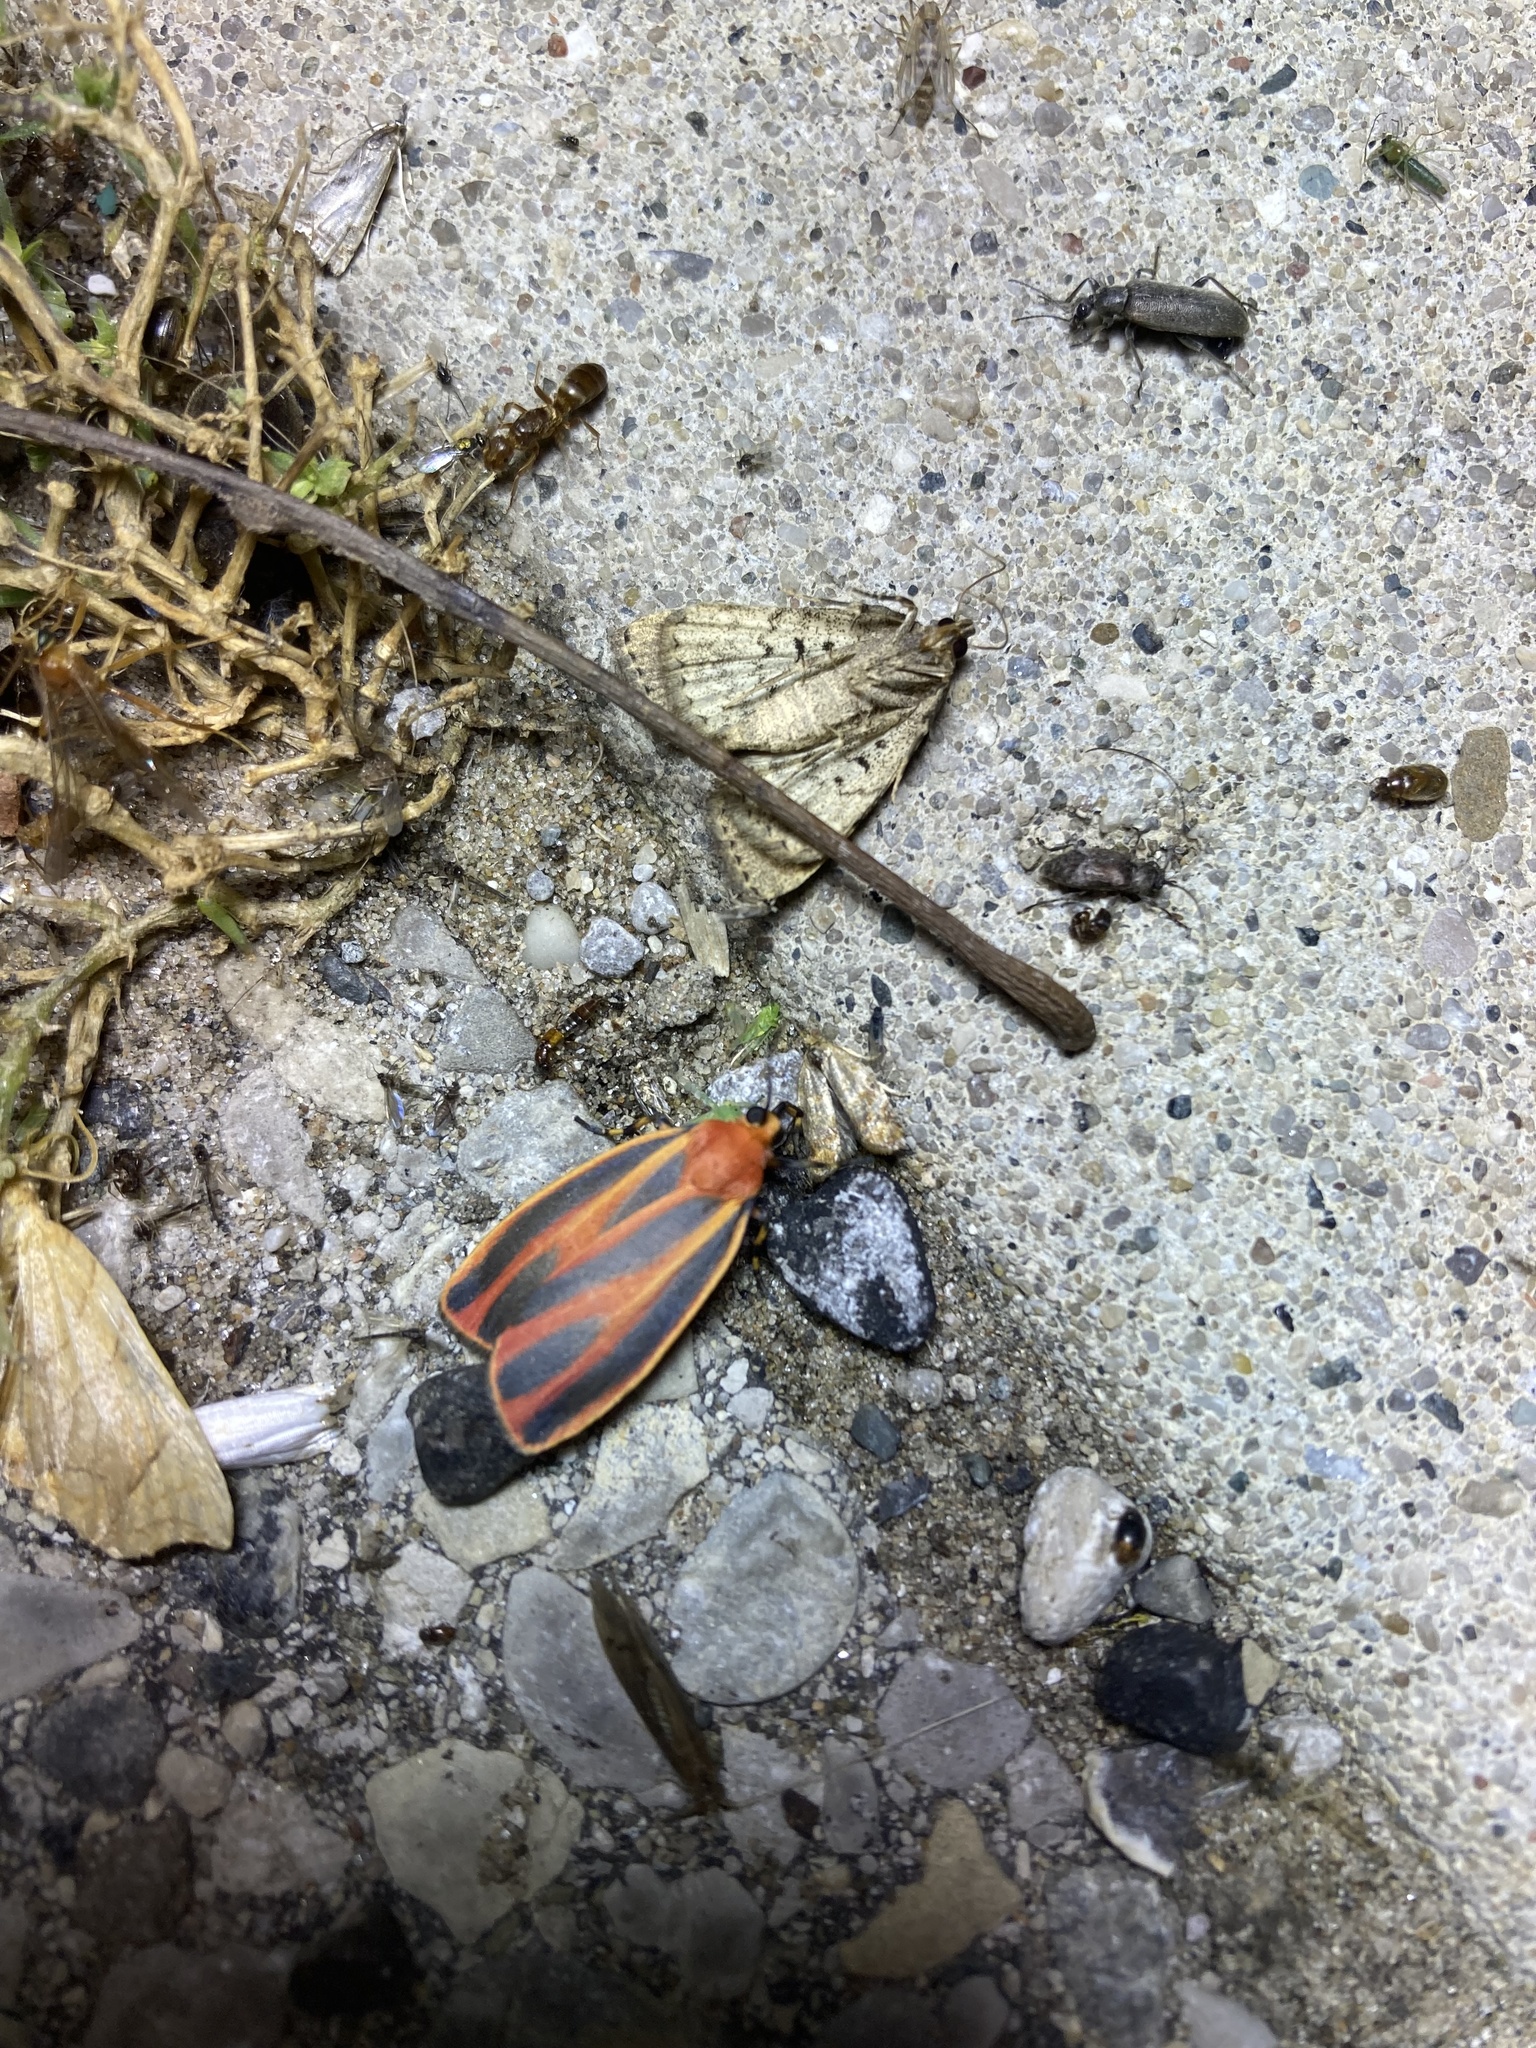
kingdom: Animalia
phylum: Arthropoda
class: Insecta
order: Lepidoptera
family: Erebidae
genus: Hypoprepia
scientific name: Hypoprepia miniata
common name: Scarlet-winged lichen moth
